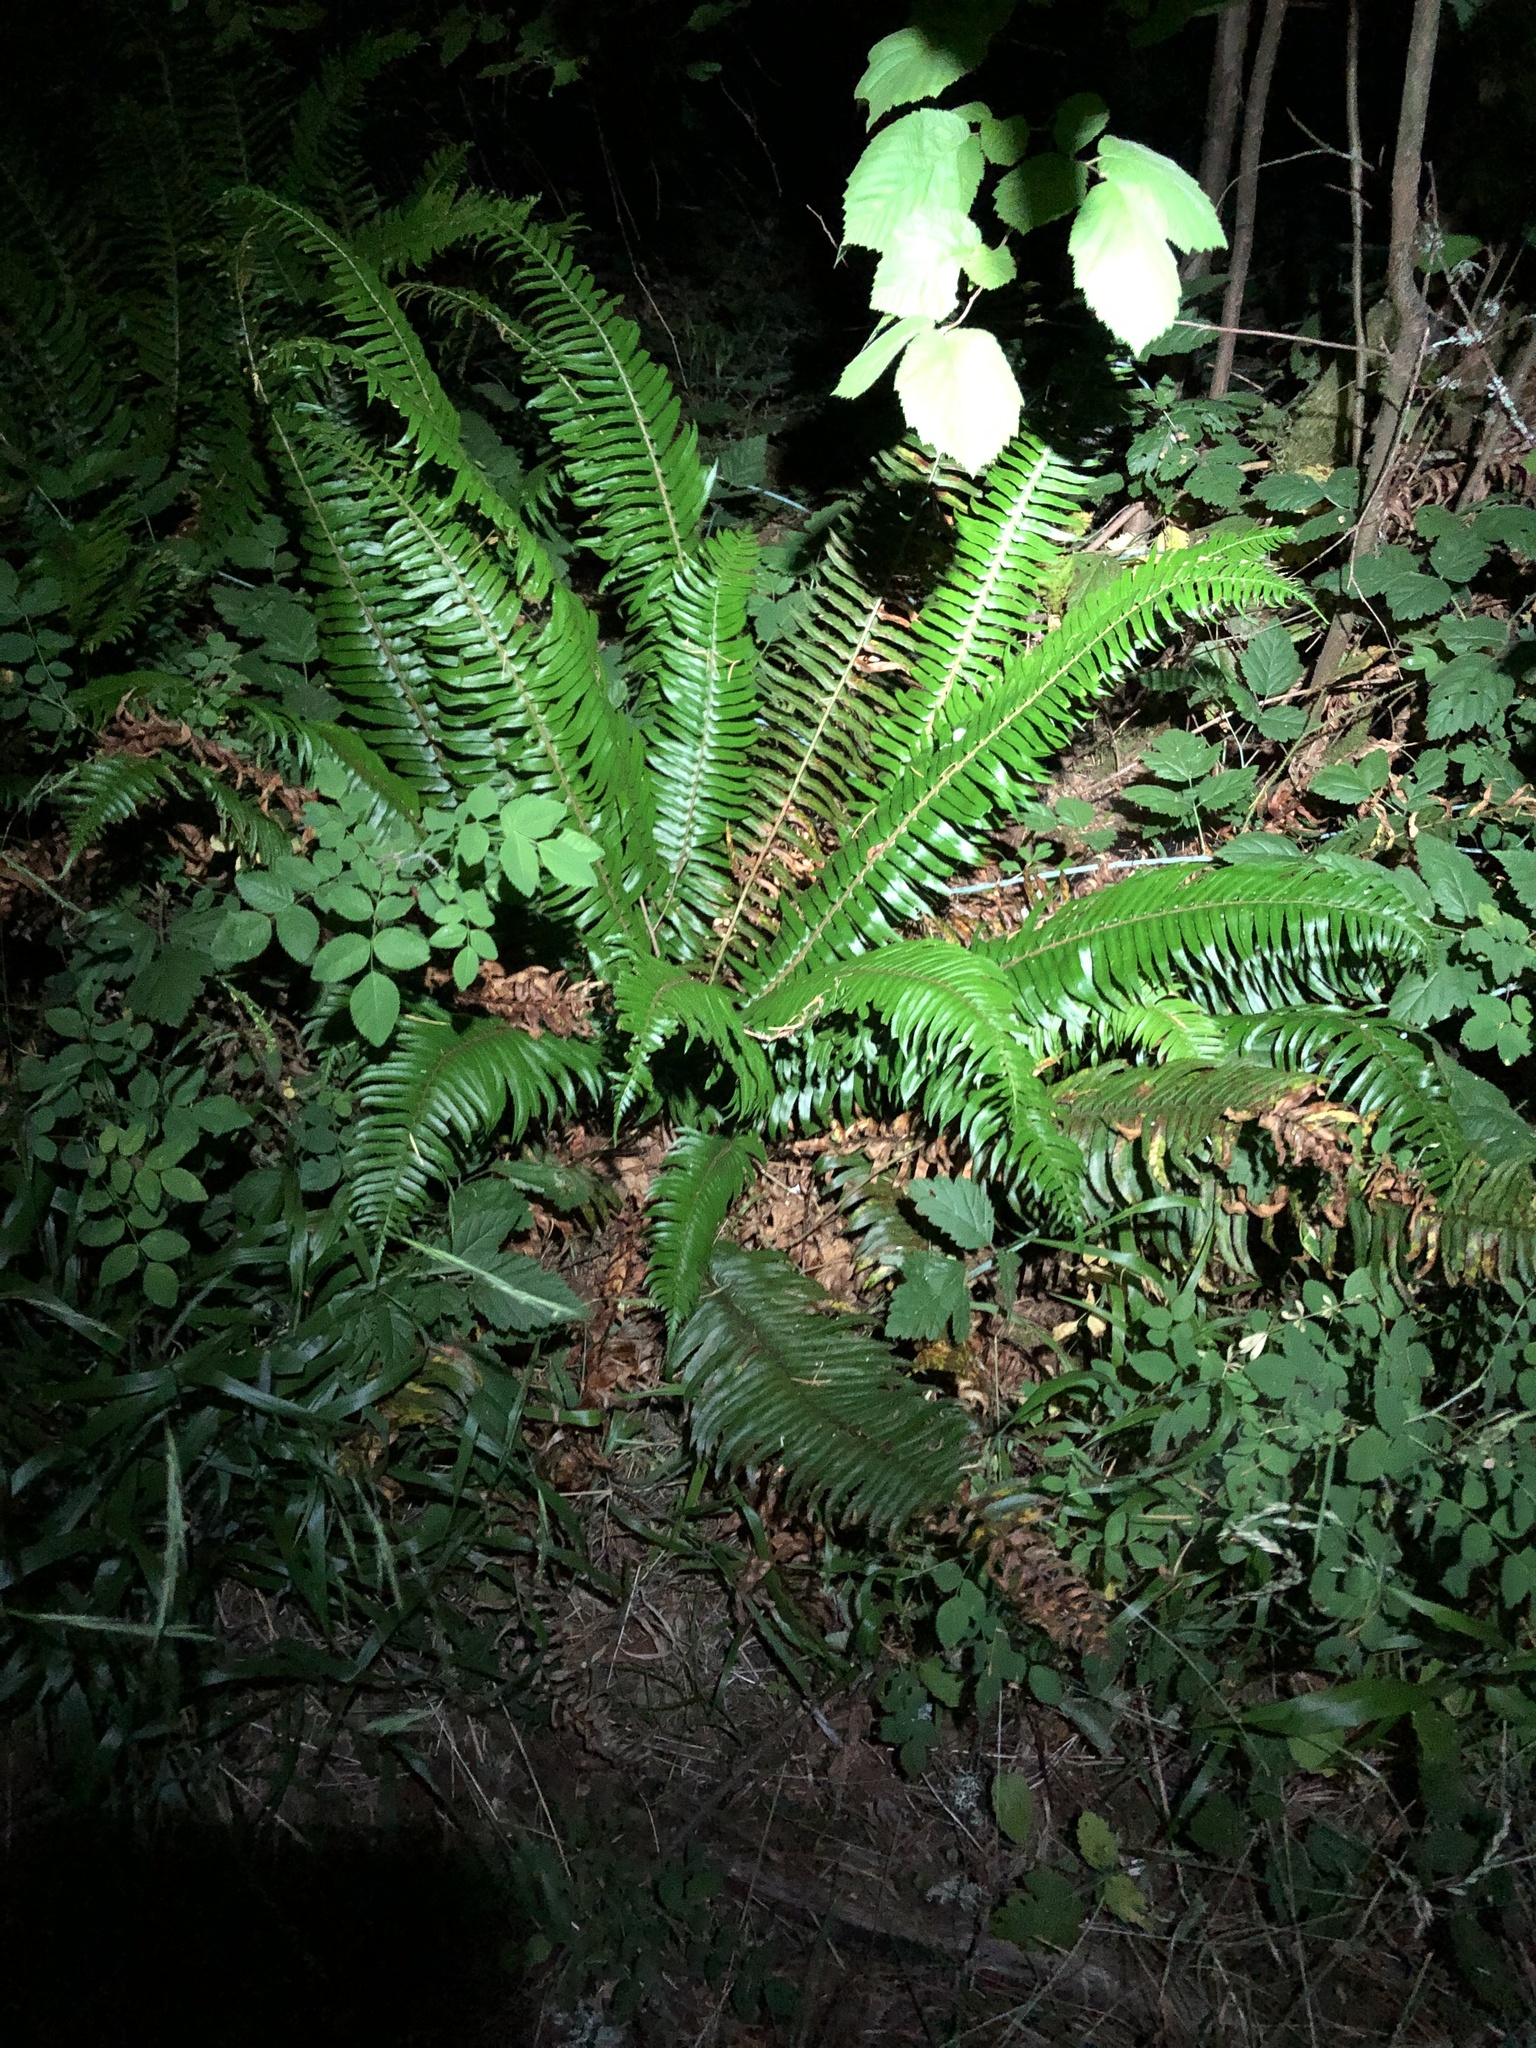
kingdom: Plantae
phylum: Tracheophyta
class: Polypodiopsida
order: Polypodiales
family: Dryopteridaceae
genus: Polystichum
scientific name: Polystichum munitum
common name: Western sword-fern
